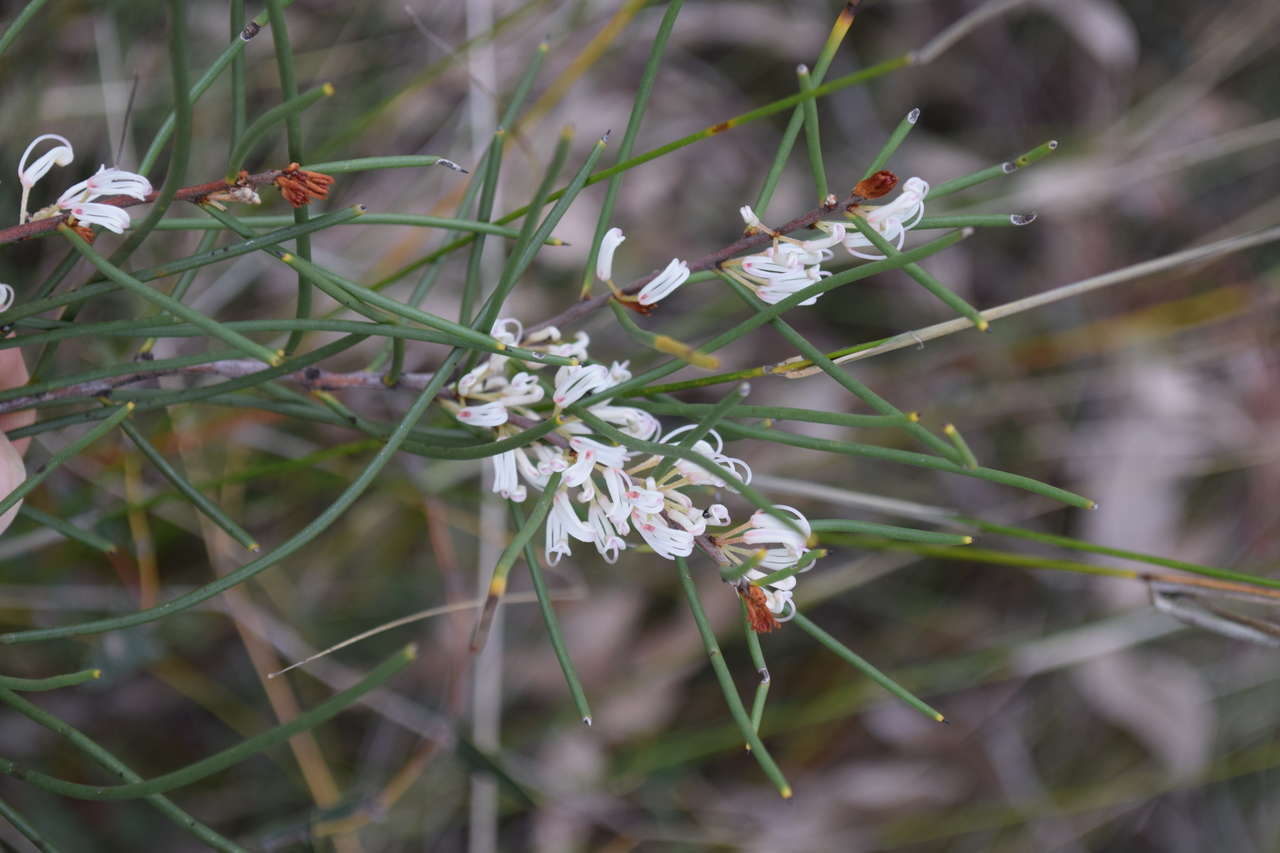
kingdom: Plantae
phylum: Tracheophyta
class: Magnoliopsida
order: Proteales
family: Proteaceae
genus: Hakea
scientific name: Hakea rostrata
